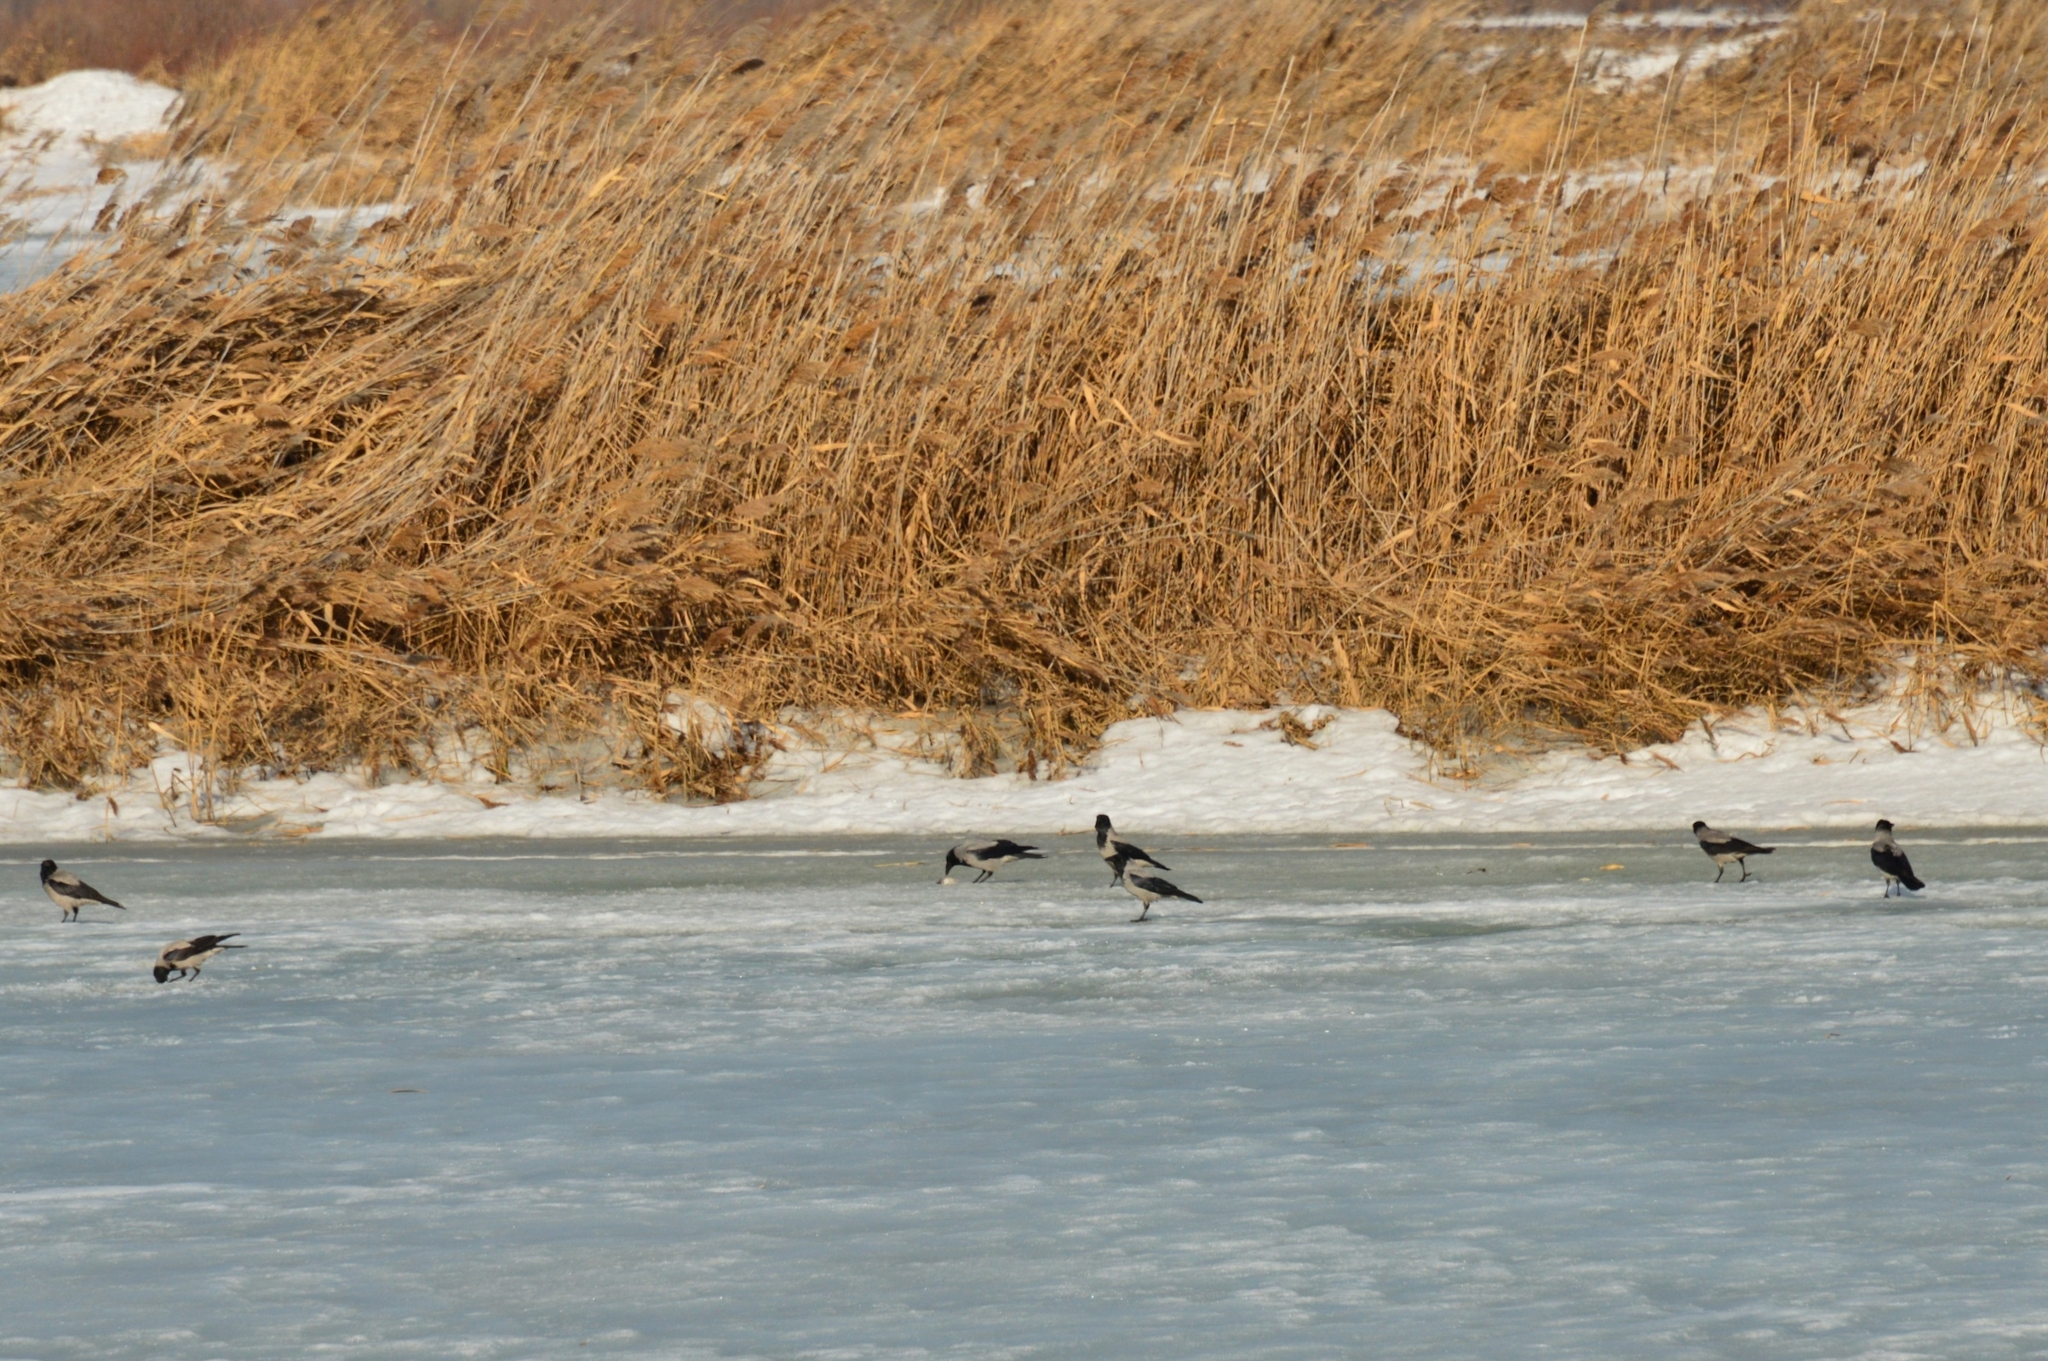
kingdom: Animalia
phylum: Chordata
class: Aves
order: Passeriformes
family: Corvidae
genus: Corvus
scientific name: Corvus cornix
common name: Hooded crow
